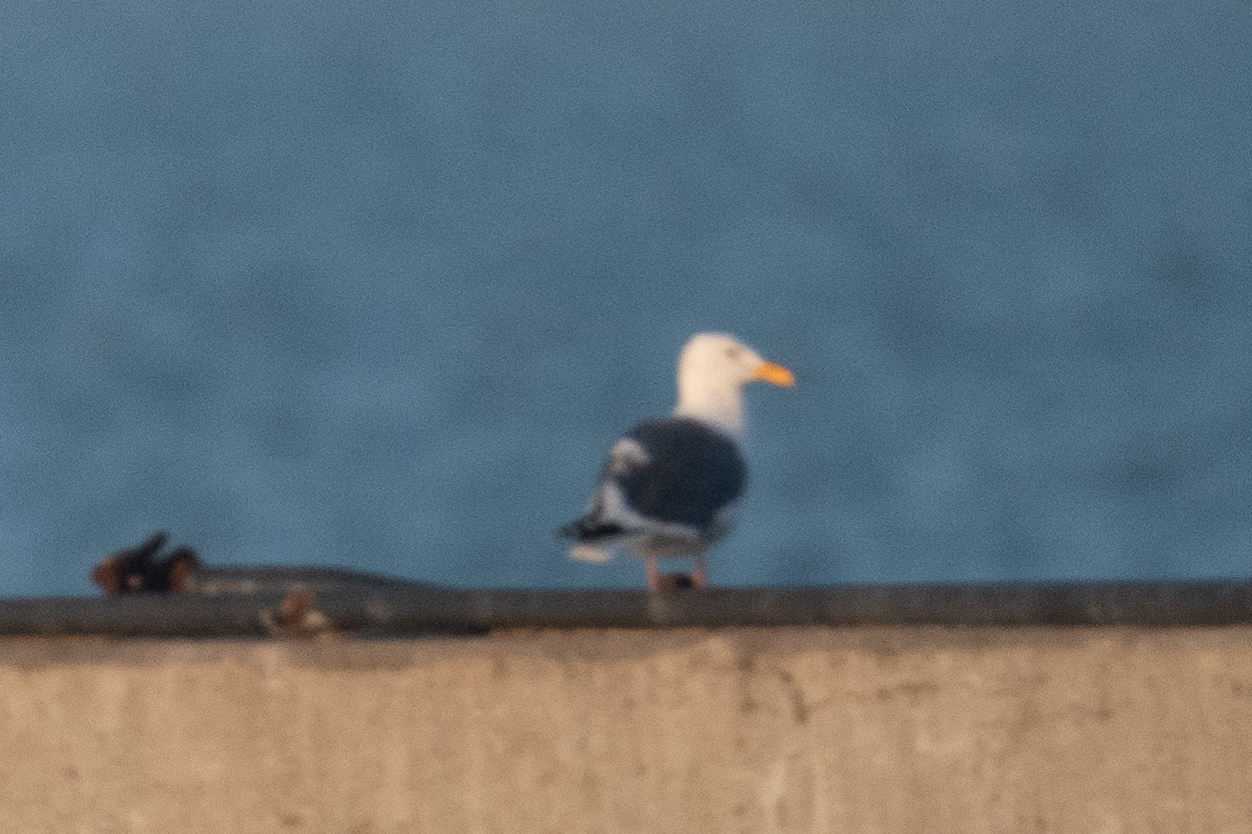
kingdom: Animalia
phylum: Chordata
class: Aves
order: Charadriiformes
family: Laridae
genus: Larus
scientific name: Larus occidentalis
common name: Western gull
